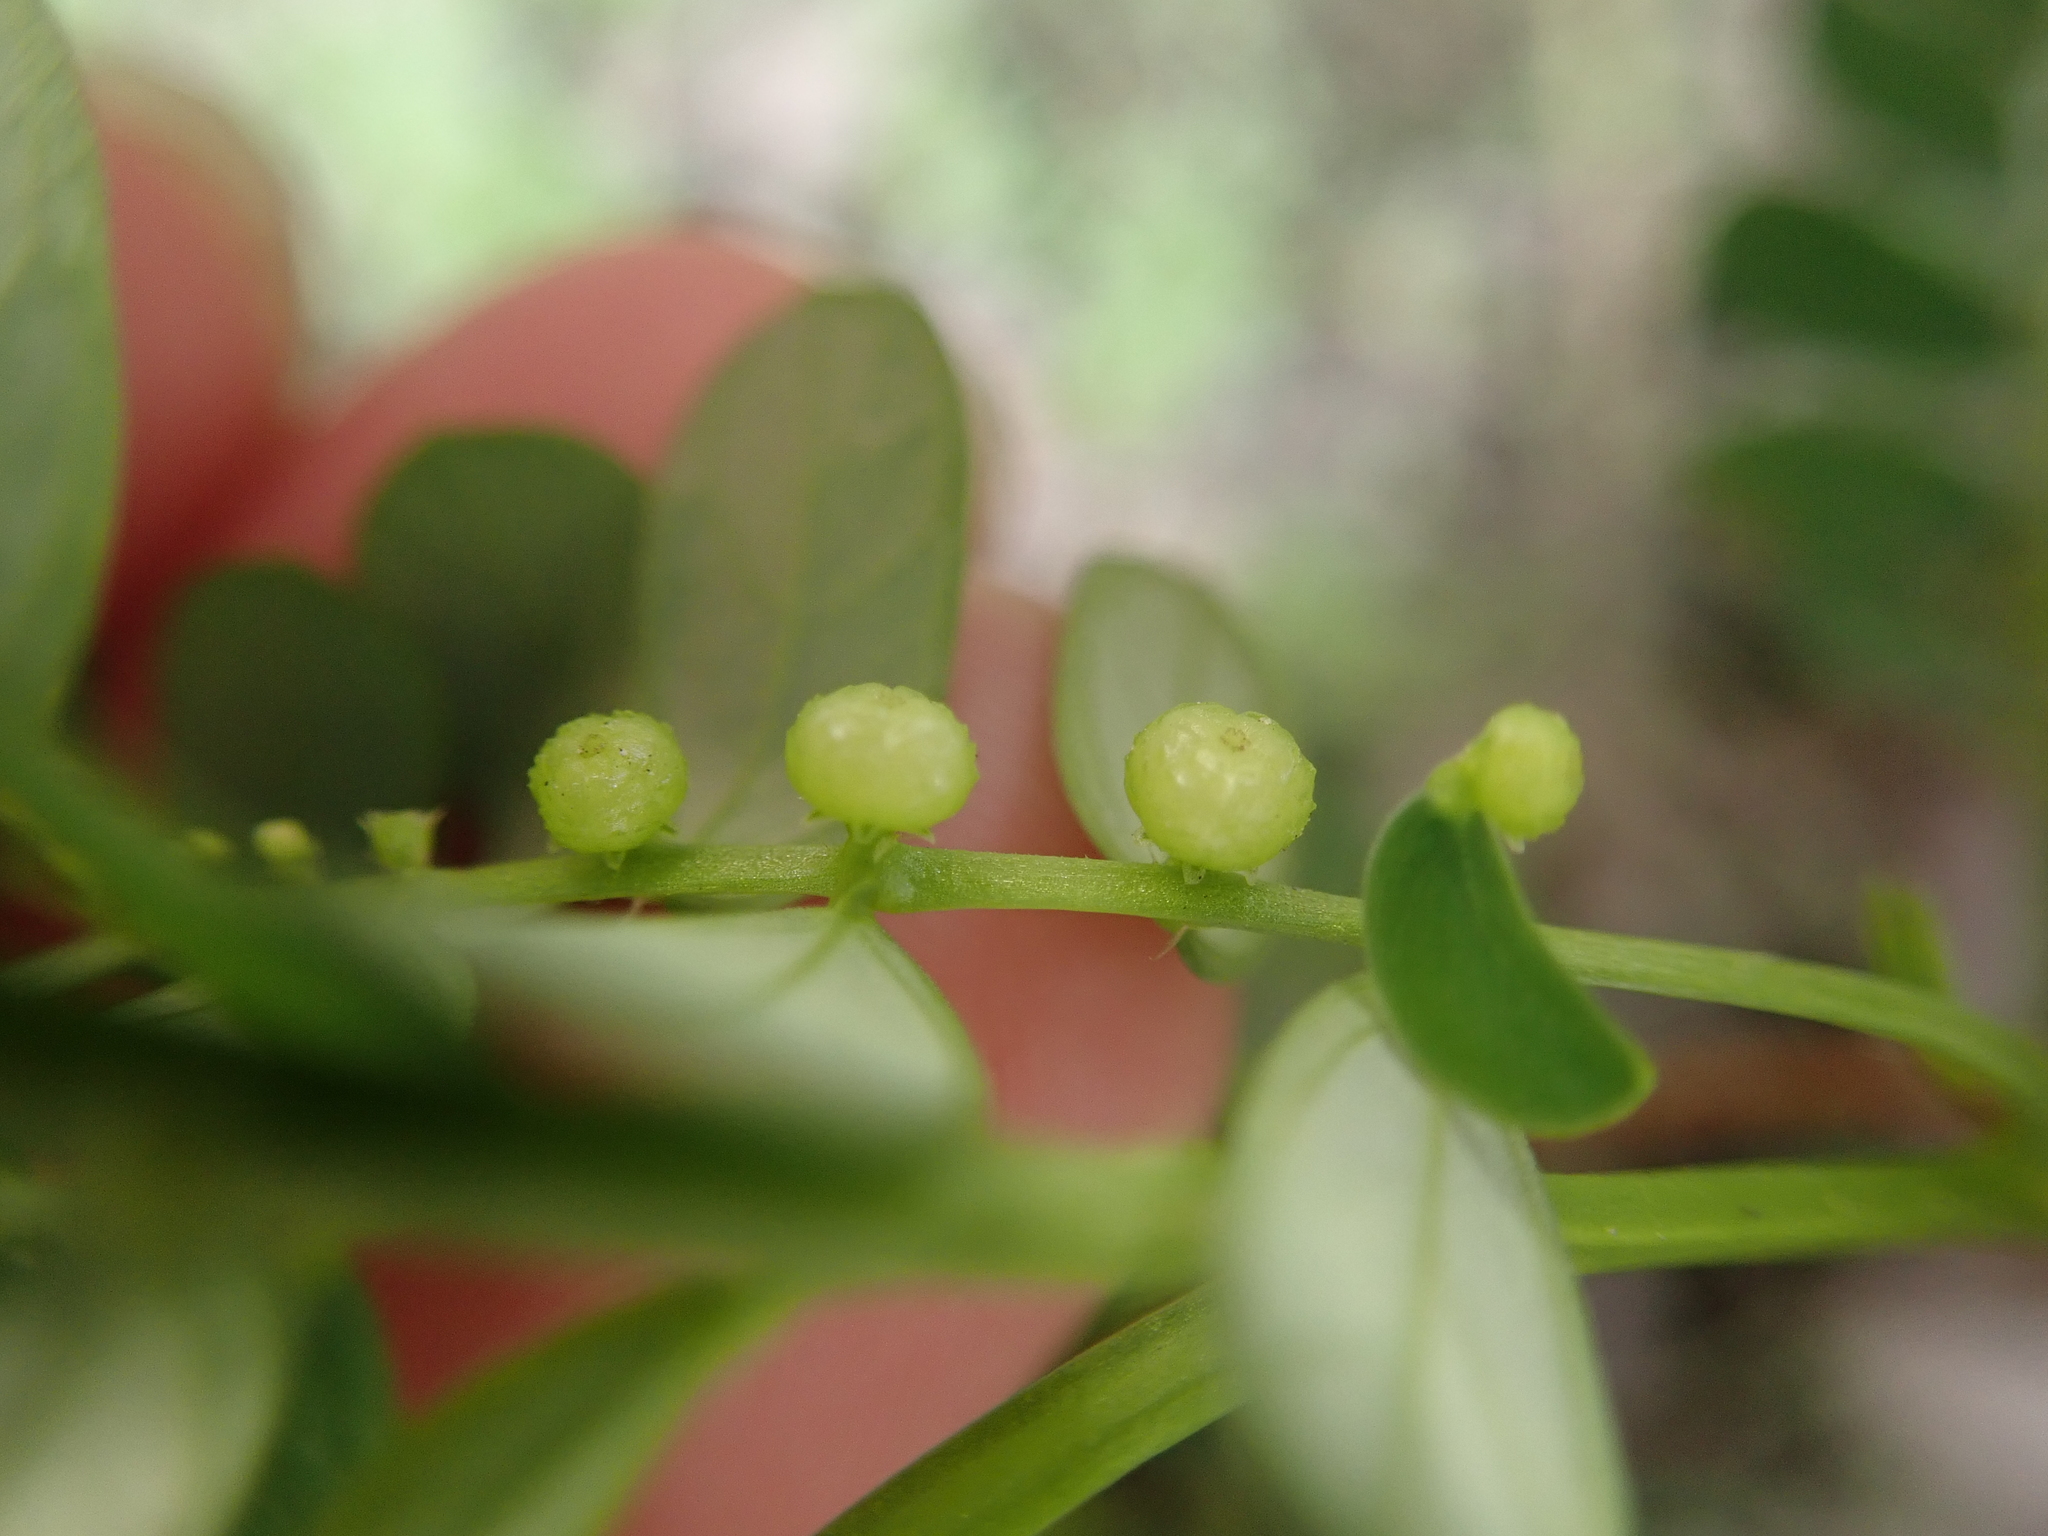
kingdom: Plantae
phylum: Tracheophyta
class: Magnoliopsida
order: Malpighiales
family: Phyllanthaceae
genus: Phyllanthus
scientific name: Phyllanthus urinaria
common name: Chamber bitter
